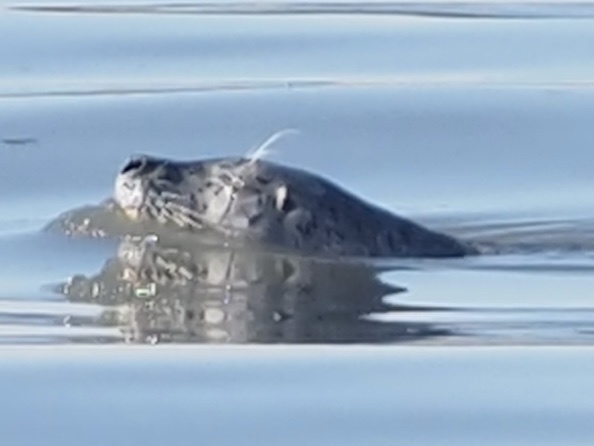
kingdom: Animalia
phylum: Chordata
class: Mammalia
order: Carnivora
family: Phocidae
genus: Phoca
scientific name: Phoca vitulina
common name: Harbor seal
